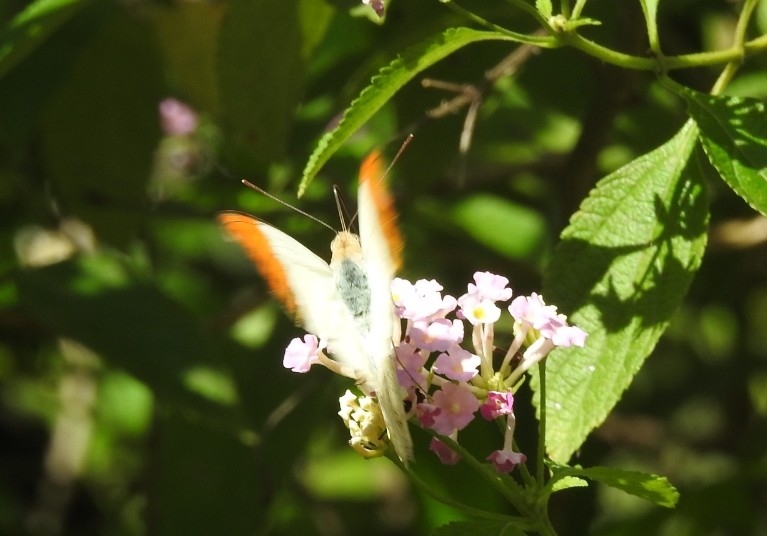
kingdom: Animalia
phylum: Arthropoda
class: Insecta
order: Lepidoptera
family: Pieridae
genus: Hebomoia
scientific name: Hebomoia glaucippe
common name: Great orange tip
